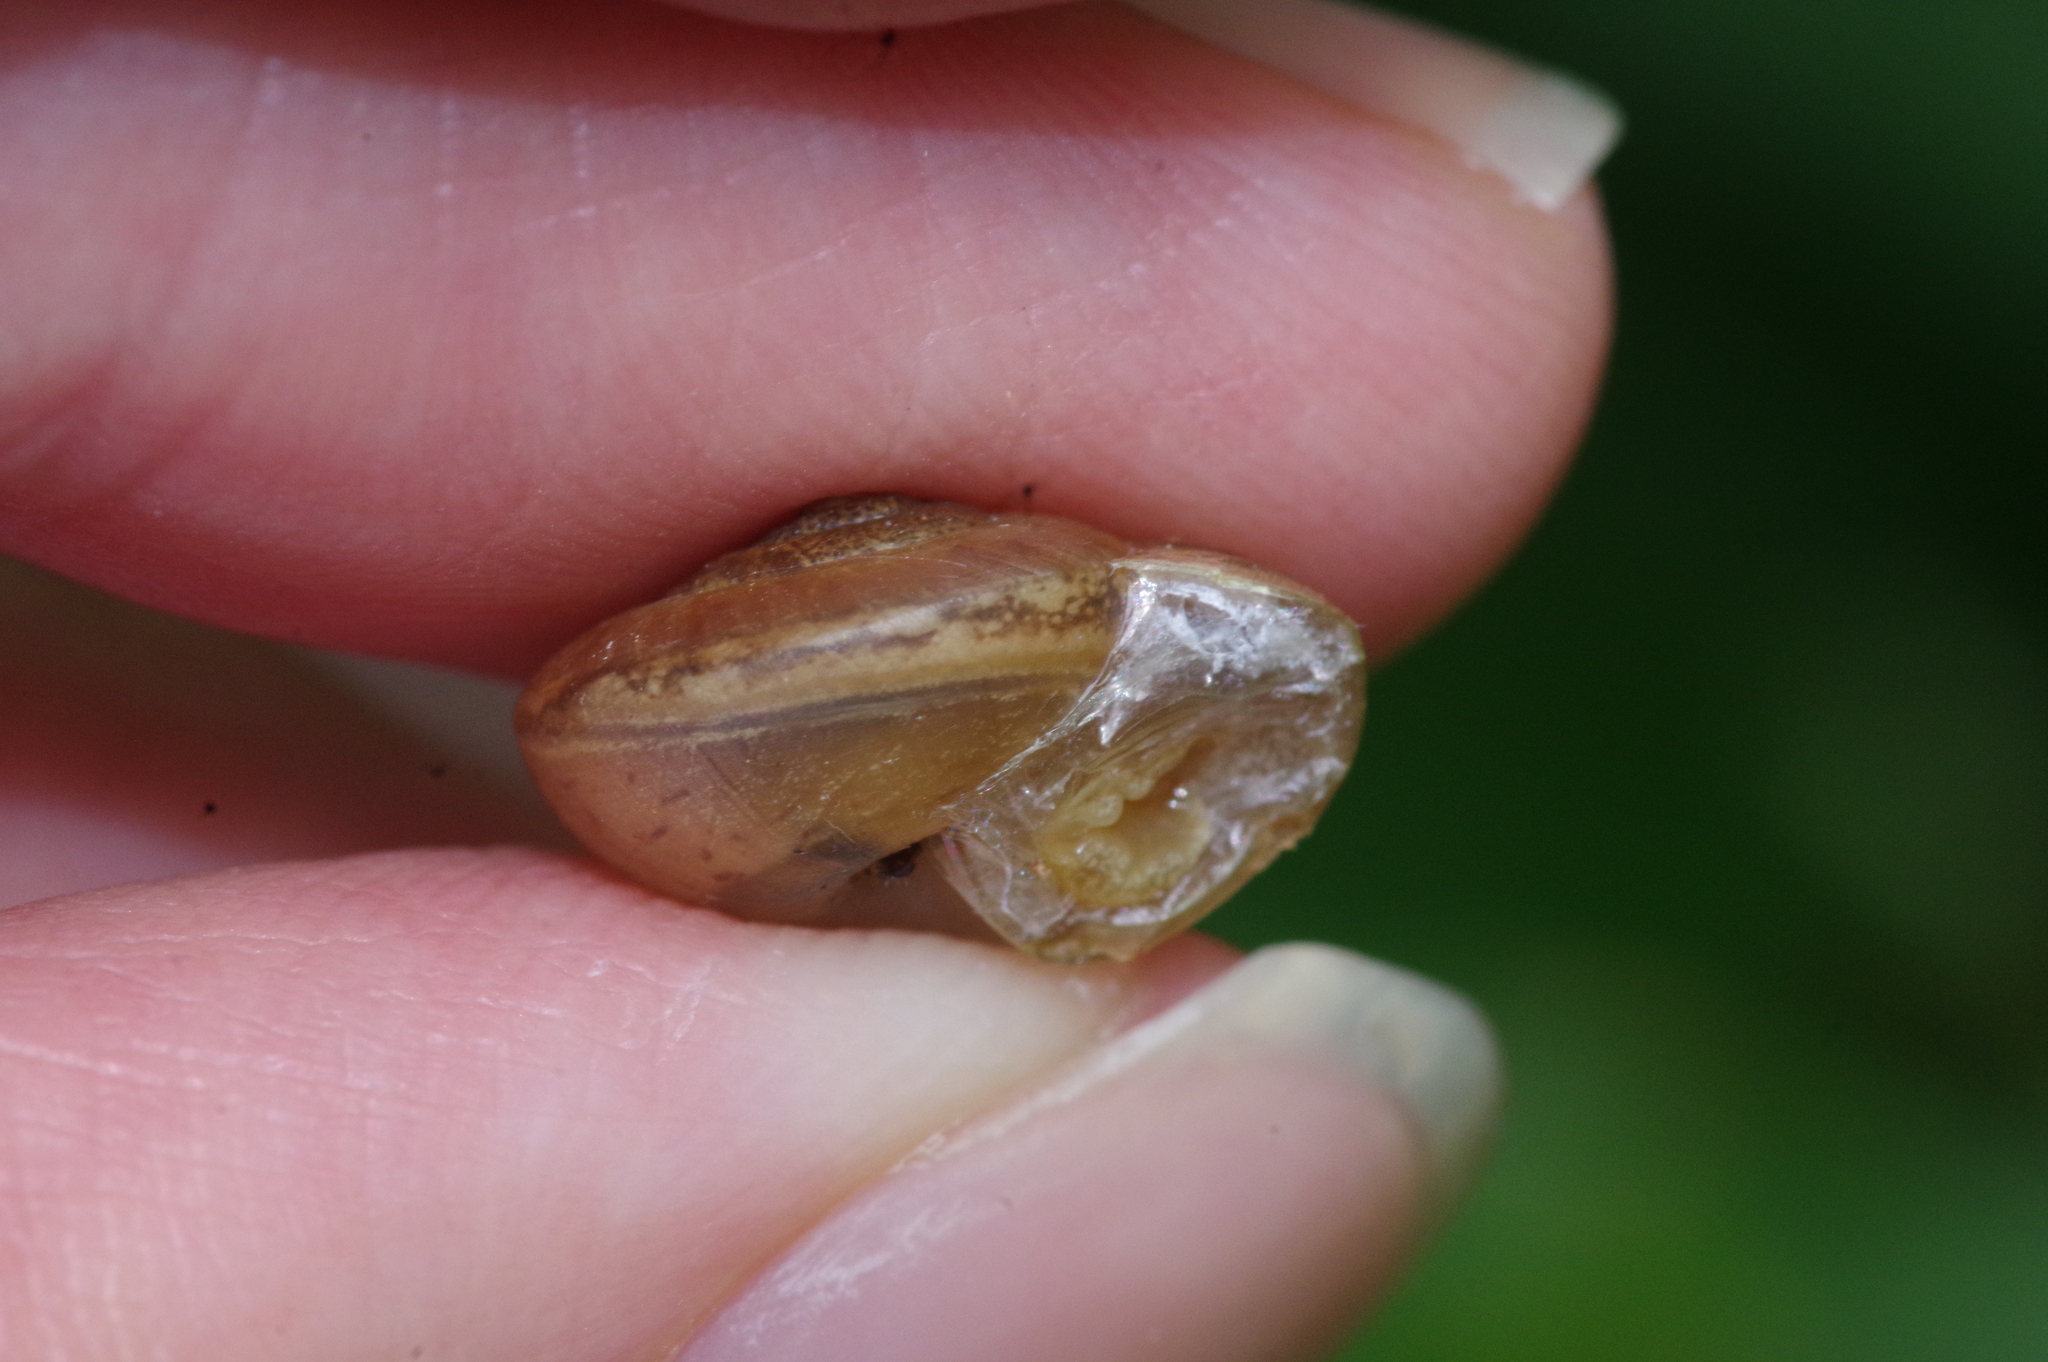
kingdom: Animalia
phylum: Mollusca
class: Gastropoda
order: Stylommatophora
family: Camaenidae
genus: Bradybaena
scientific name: Bradybaena circulus
